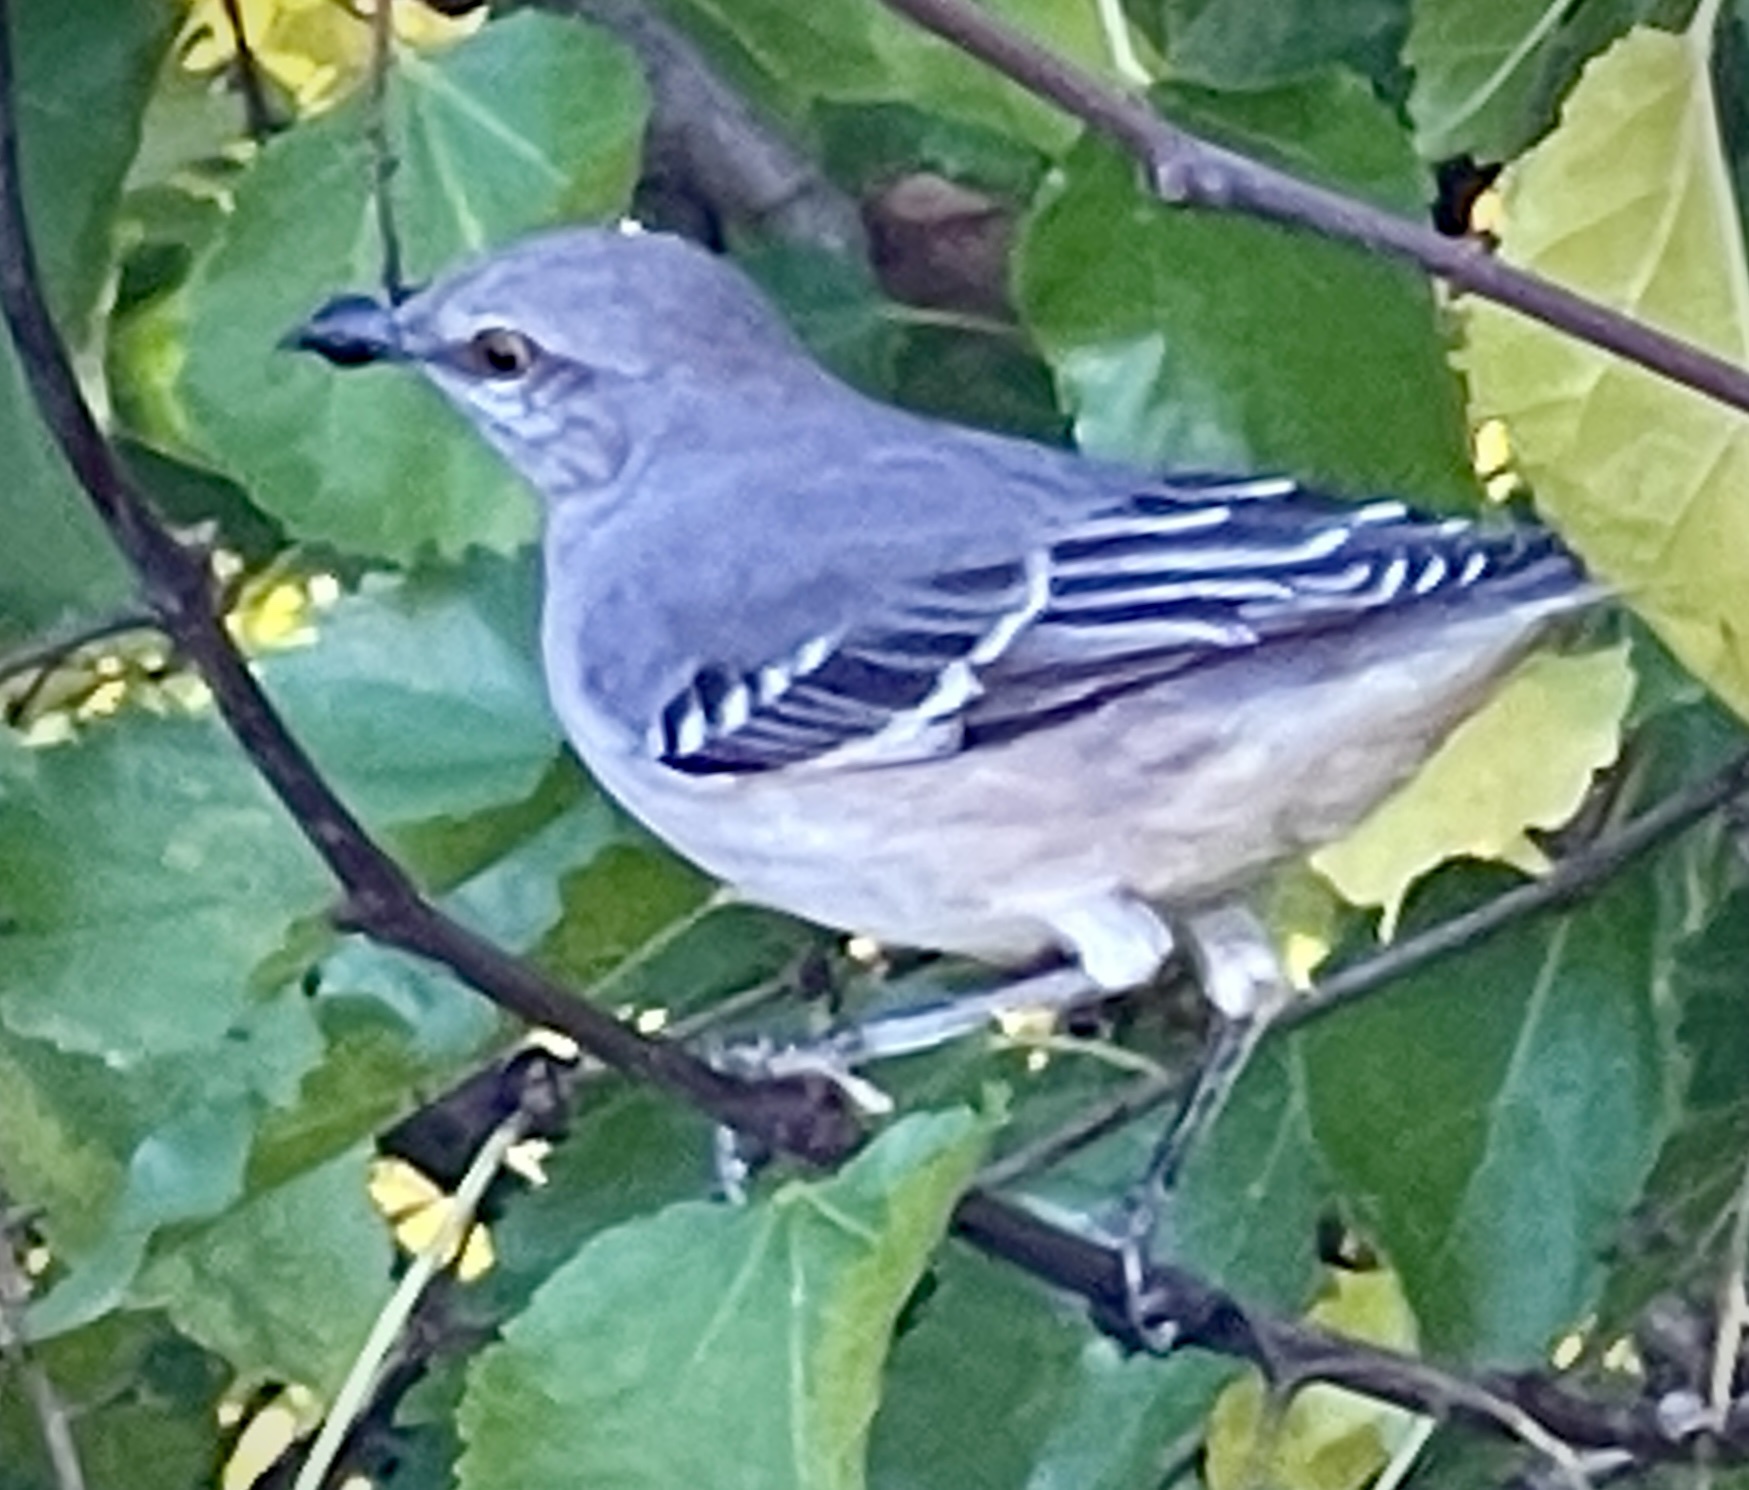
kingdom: Animalia
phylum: Chordata
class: Aves
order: Passeriformes
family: Mimidae
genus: Mimus
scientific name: Mimus polyglottos
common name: Northern mockingbird
